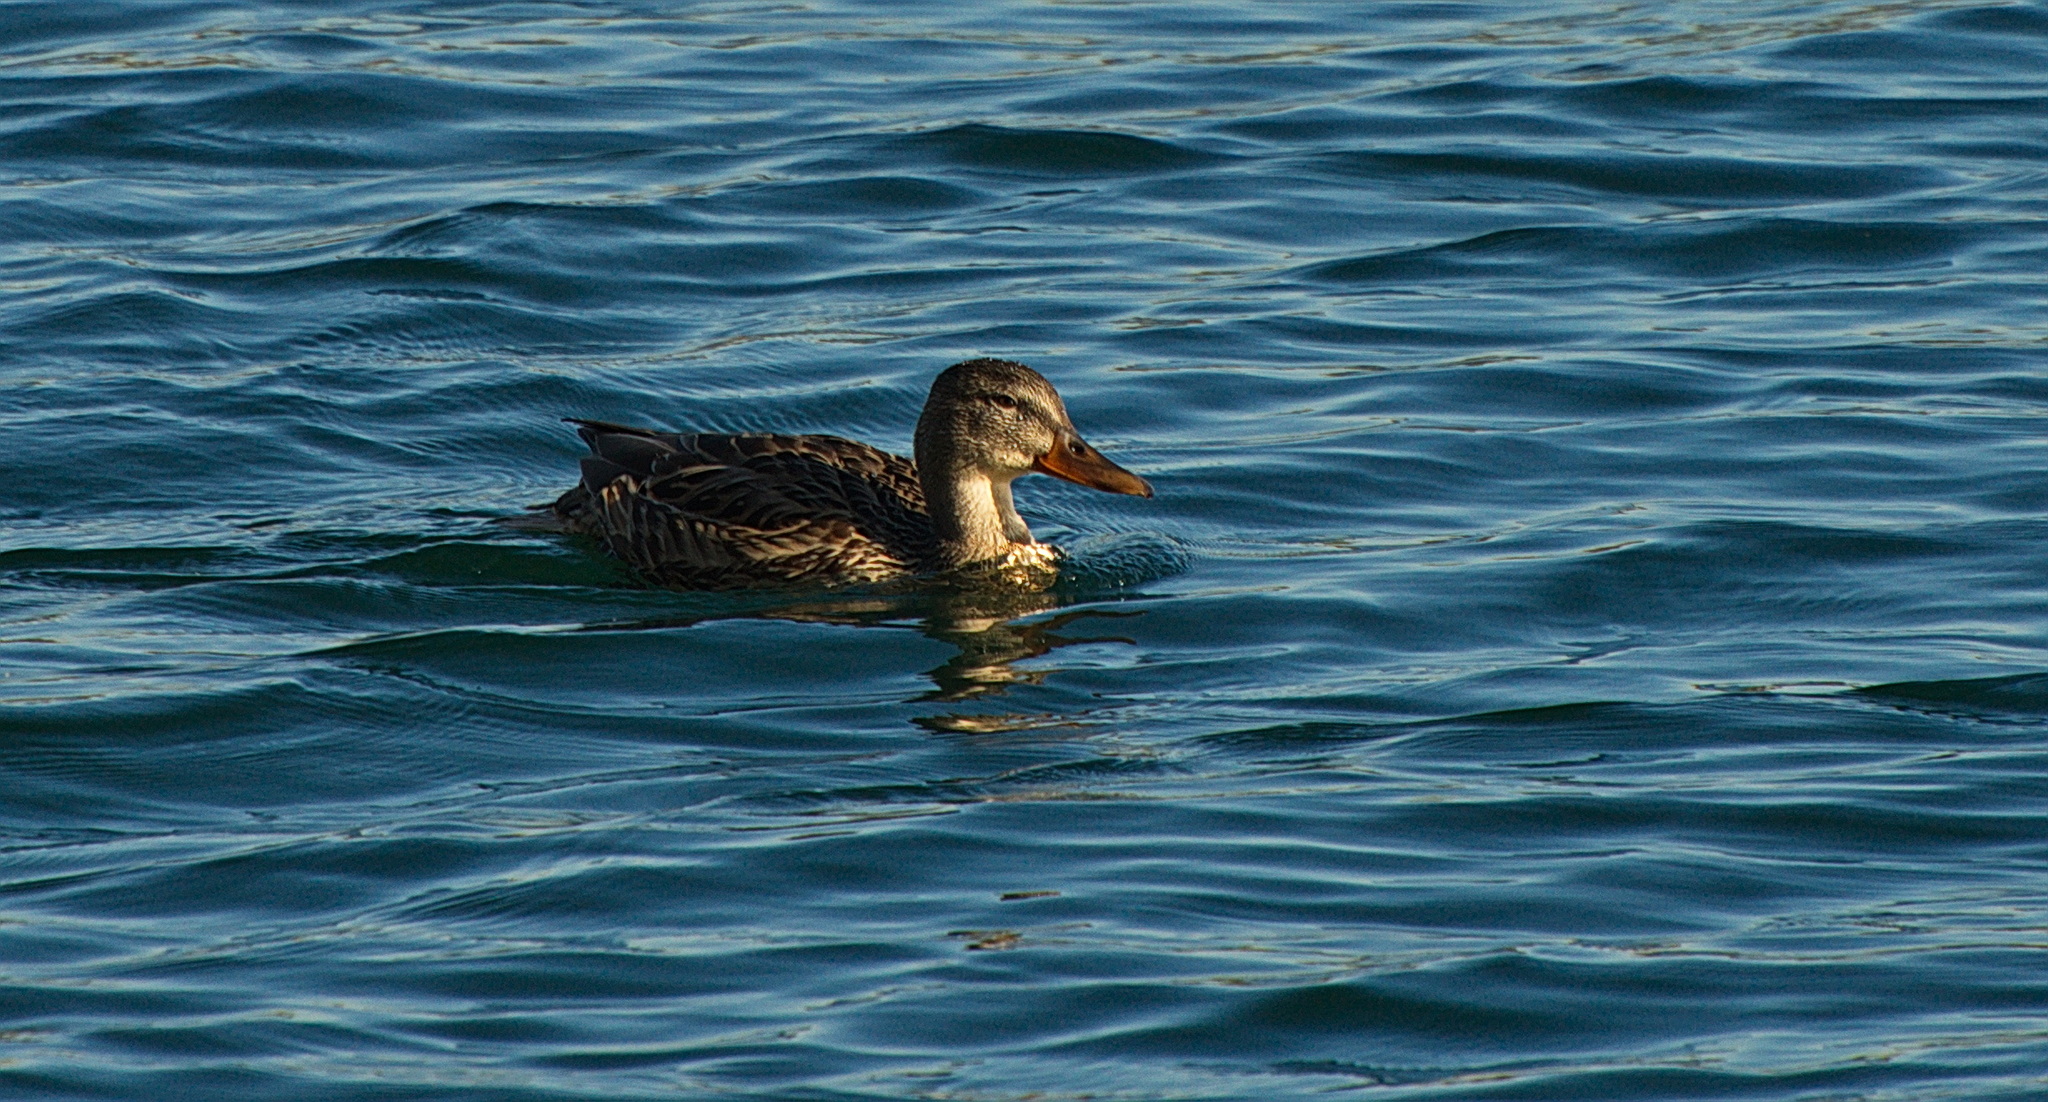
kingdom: Animalia
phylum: Chordata
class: Aves
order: Anseriformes
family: Anatidae
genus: Anas
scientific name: Anas platyrhynchos
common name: Mallard
